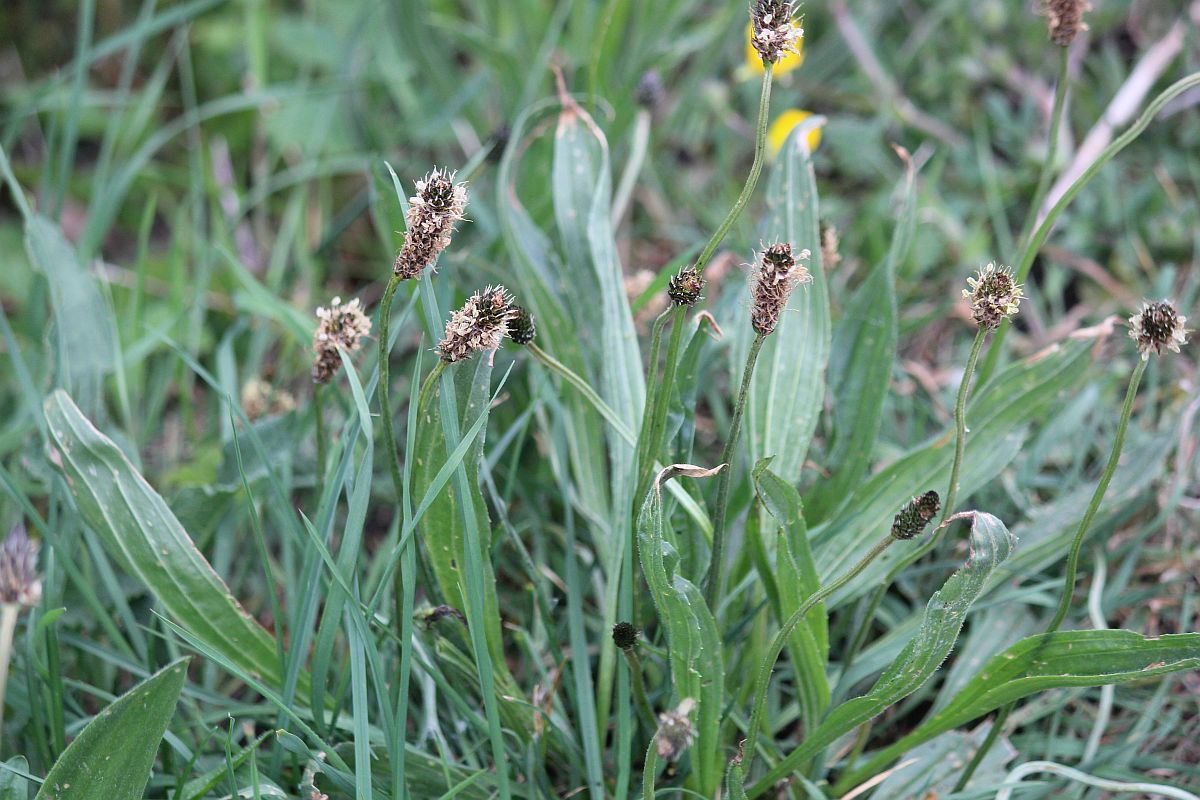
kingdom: Plantae
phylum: Tracheophyta
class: Magnoliopsida
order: Lamiales
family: Plantaginaceae
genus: Plantago
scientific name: Plantago lanceolata
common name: Ribwort plantain
